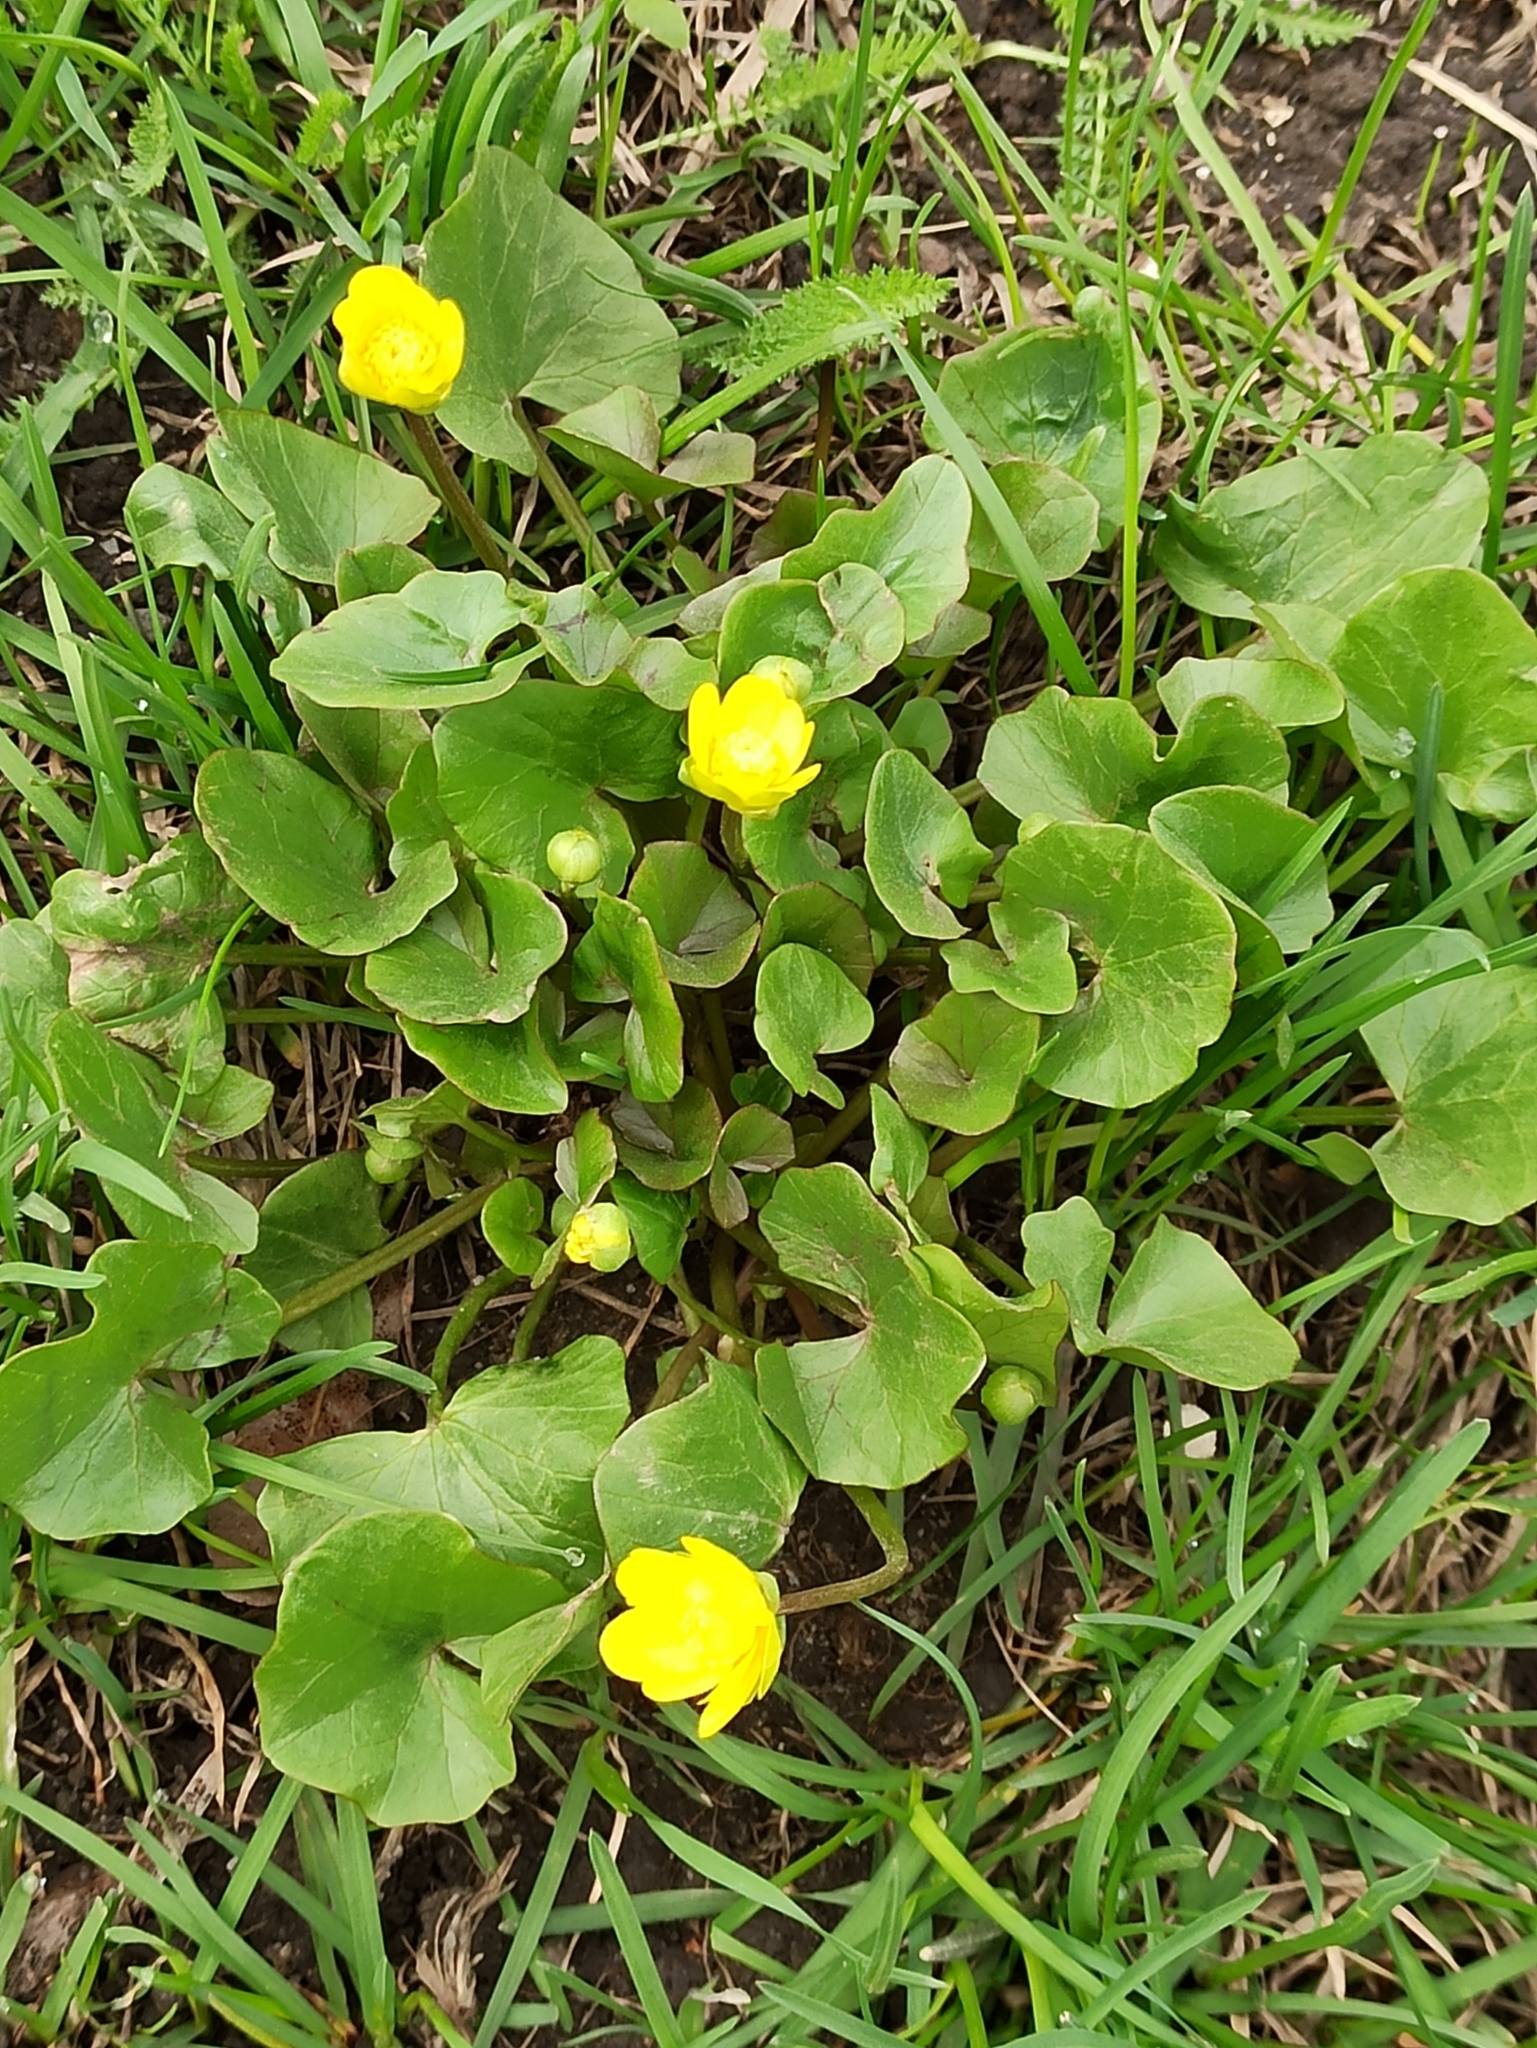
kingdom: Plantae
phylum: Tracheophyta
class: Magnoliopsida
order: Ranunculales
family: Ranunculaceae
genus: Ficaria
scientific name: Ficaria verna
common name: Lesser celandine
